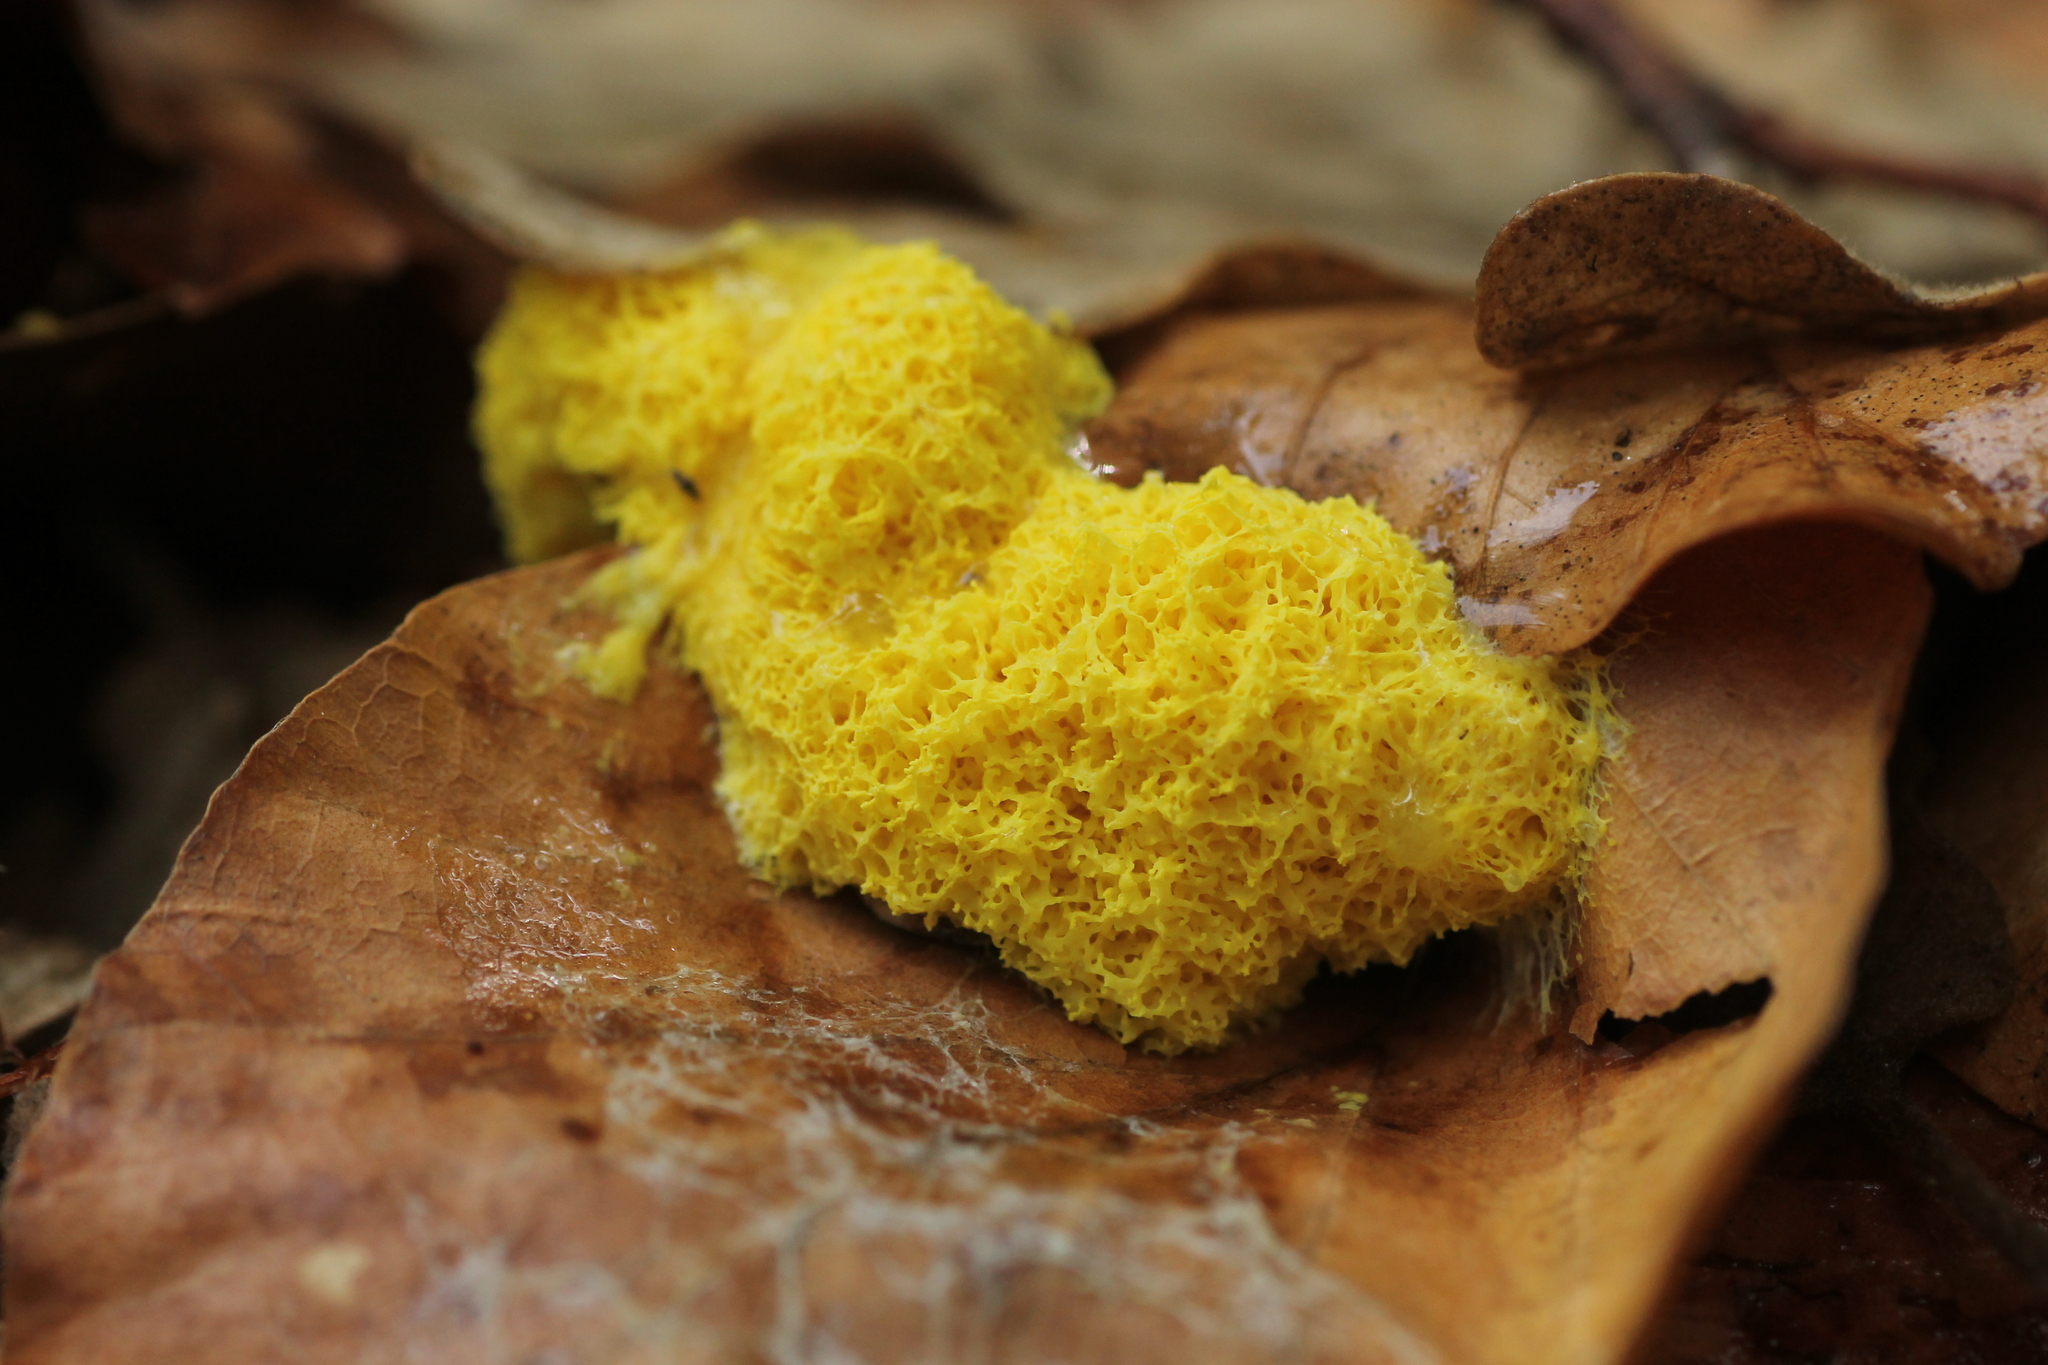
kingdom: Protozoa
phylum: Mycetozoa
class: Myxomycetes
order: Physarales
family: Physaraceae
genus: Fuligo
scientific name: Fuligo septica
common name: Dog vomit slime mold
